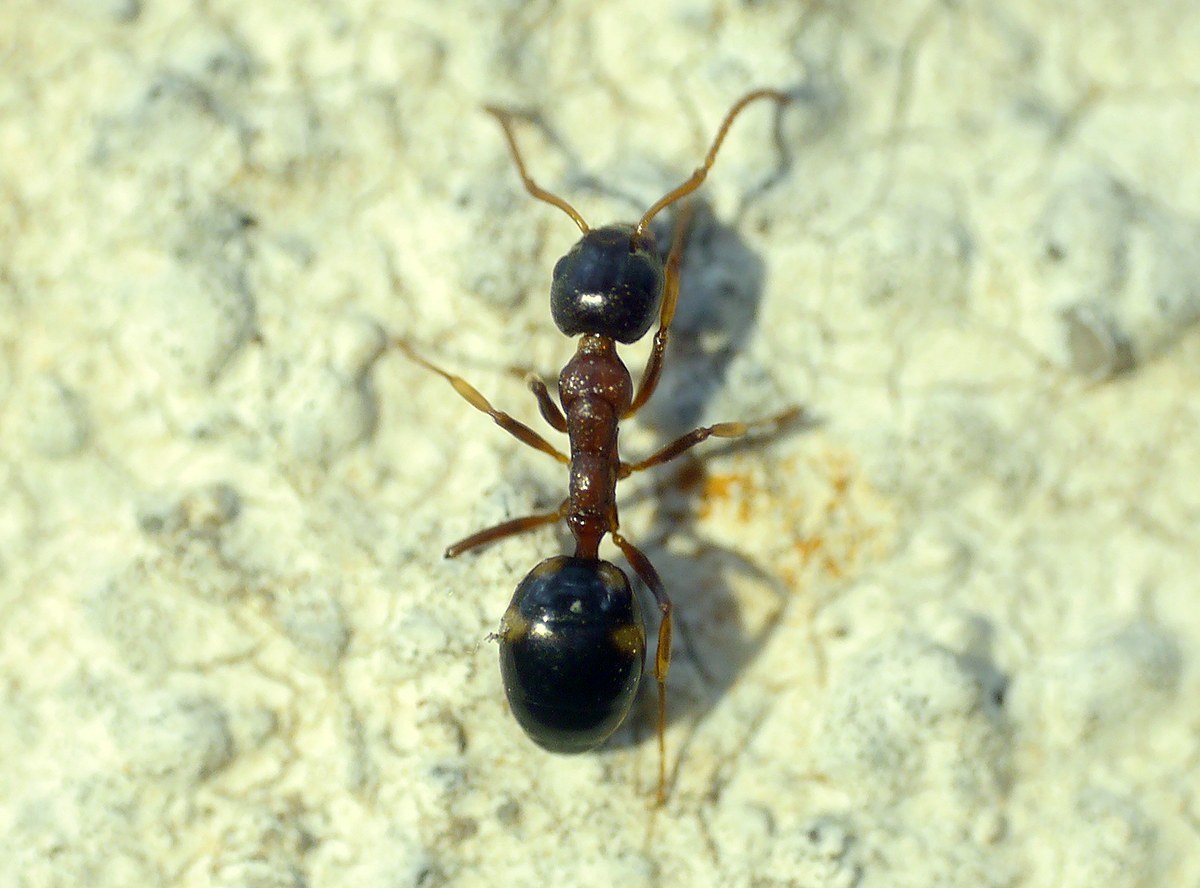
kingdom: Animalia
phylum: Arthropoda
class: Insecta
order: Hymenoptera
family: Formicidae
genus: Dolichoderus
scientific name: Dolichoderus quadripunctatus
